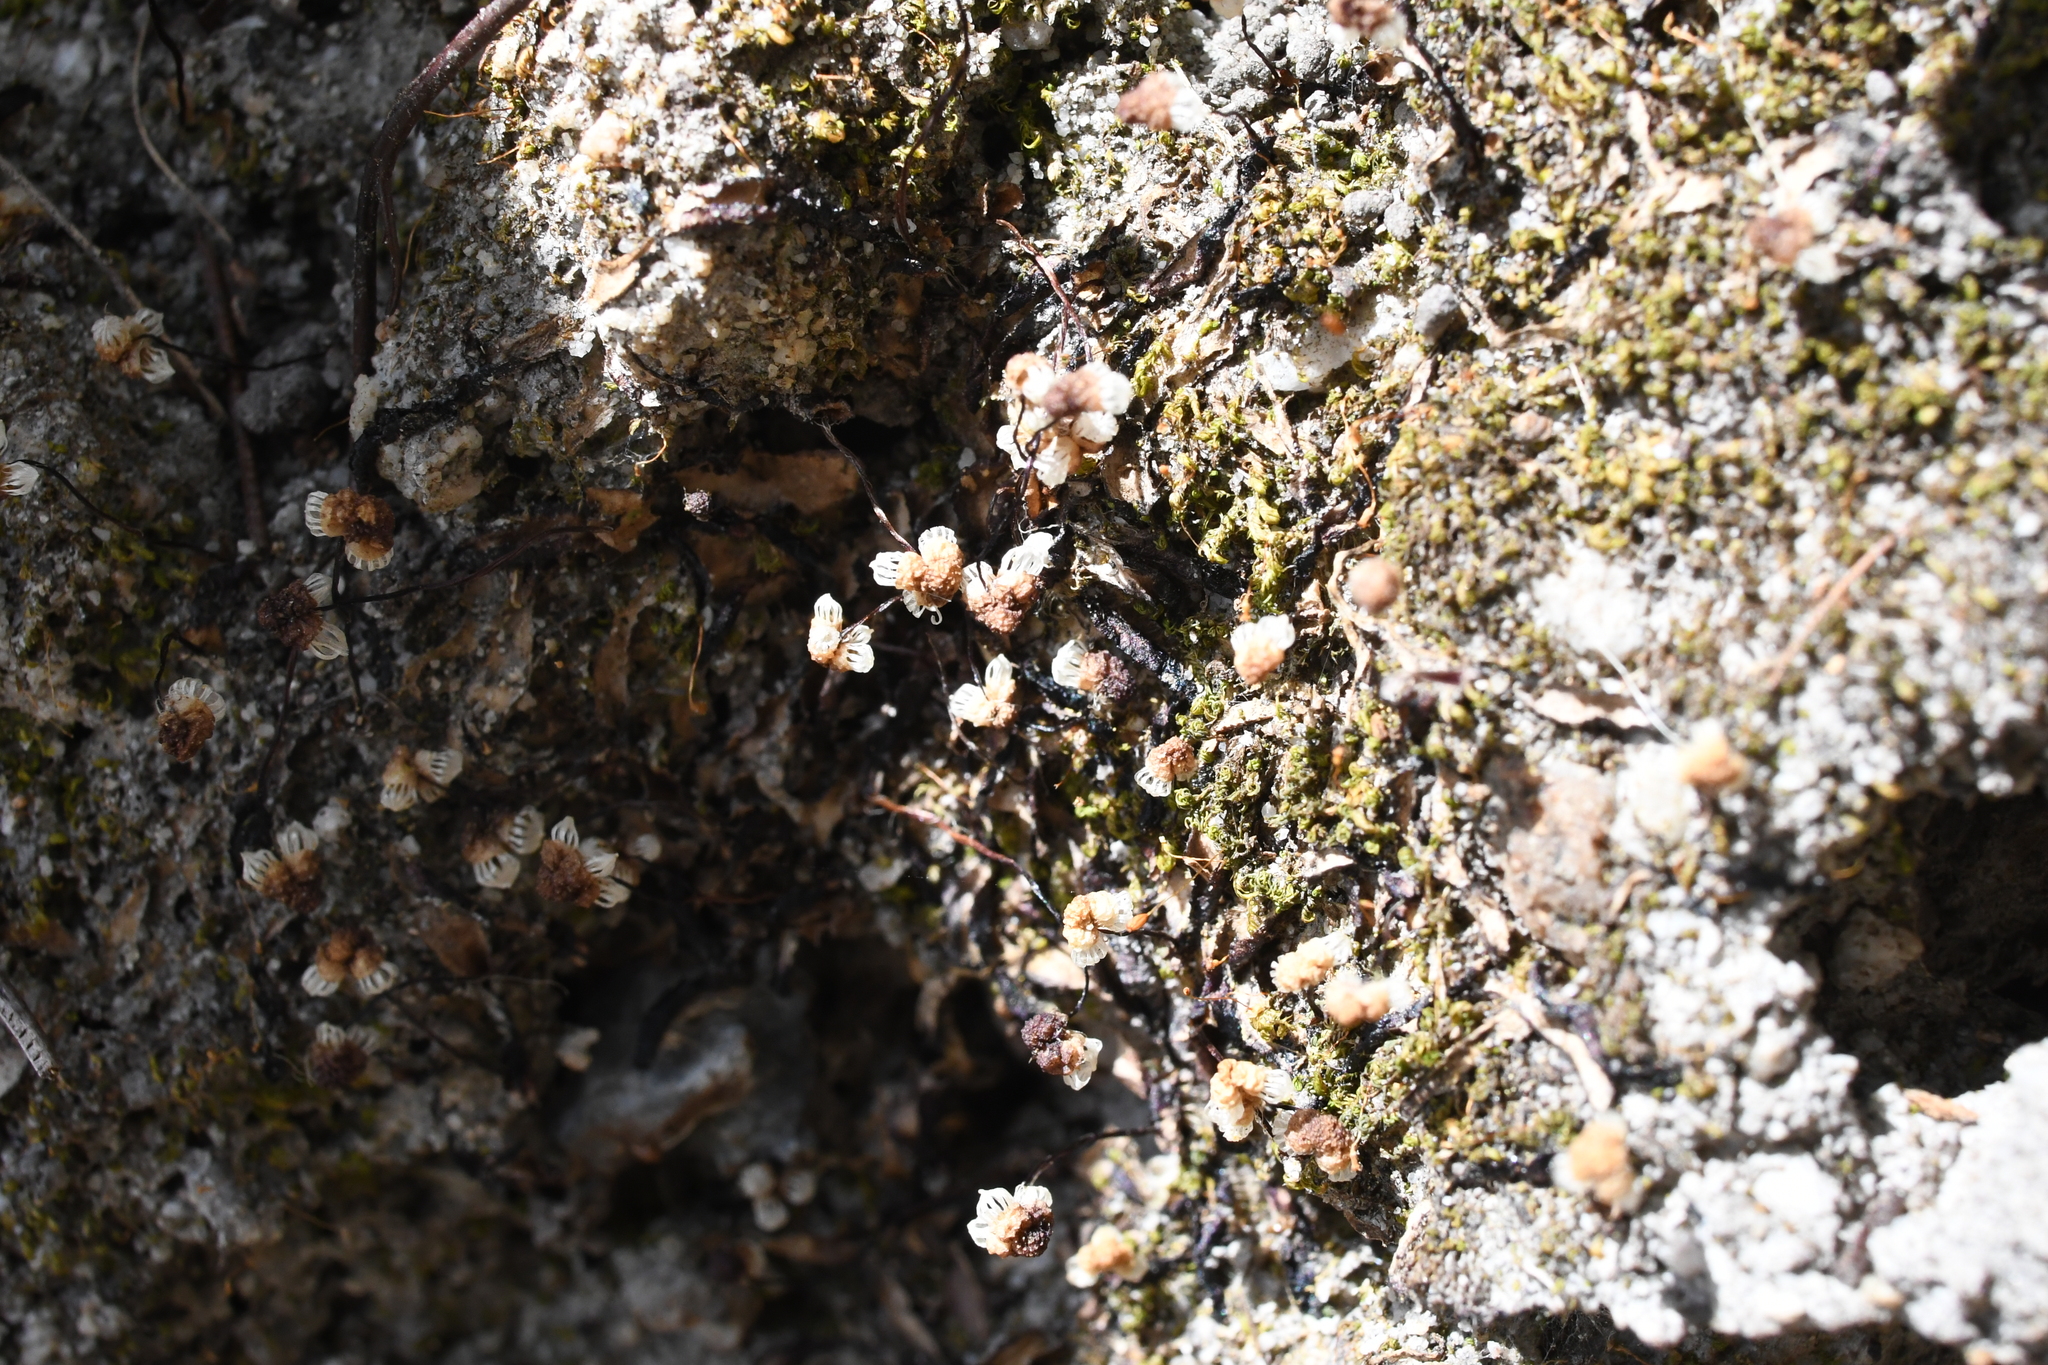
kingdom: Plantae
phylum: Marchantiophyta
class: Marchantiopsida
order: Marchantiales
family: Aytoniaceae
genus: Asterella
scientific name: Asterella drummondii
